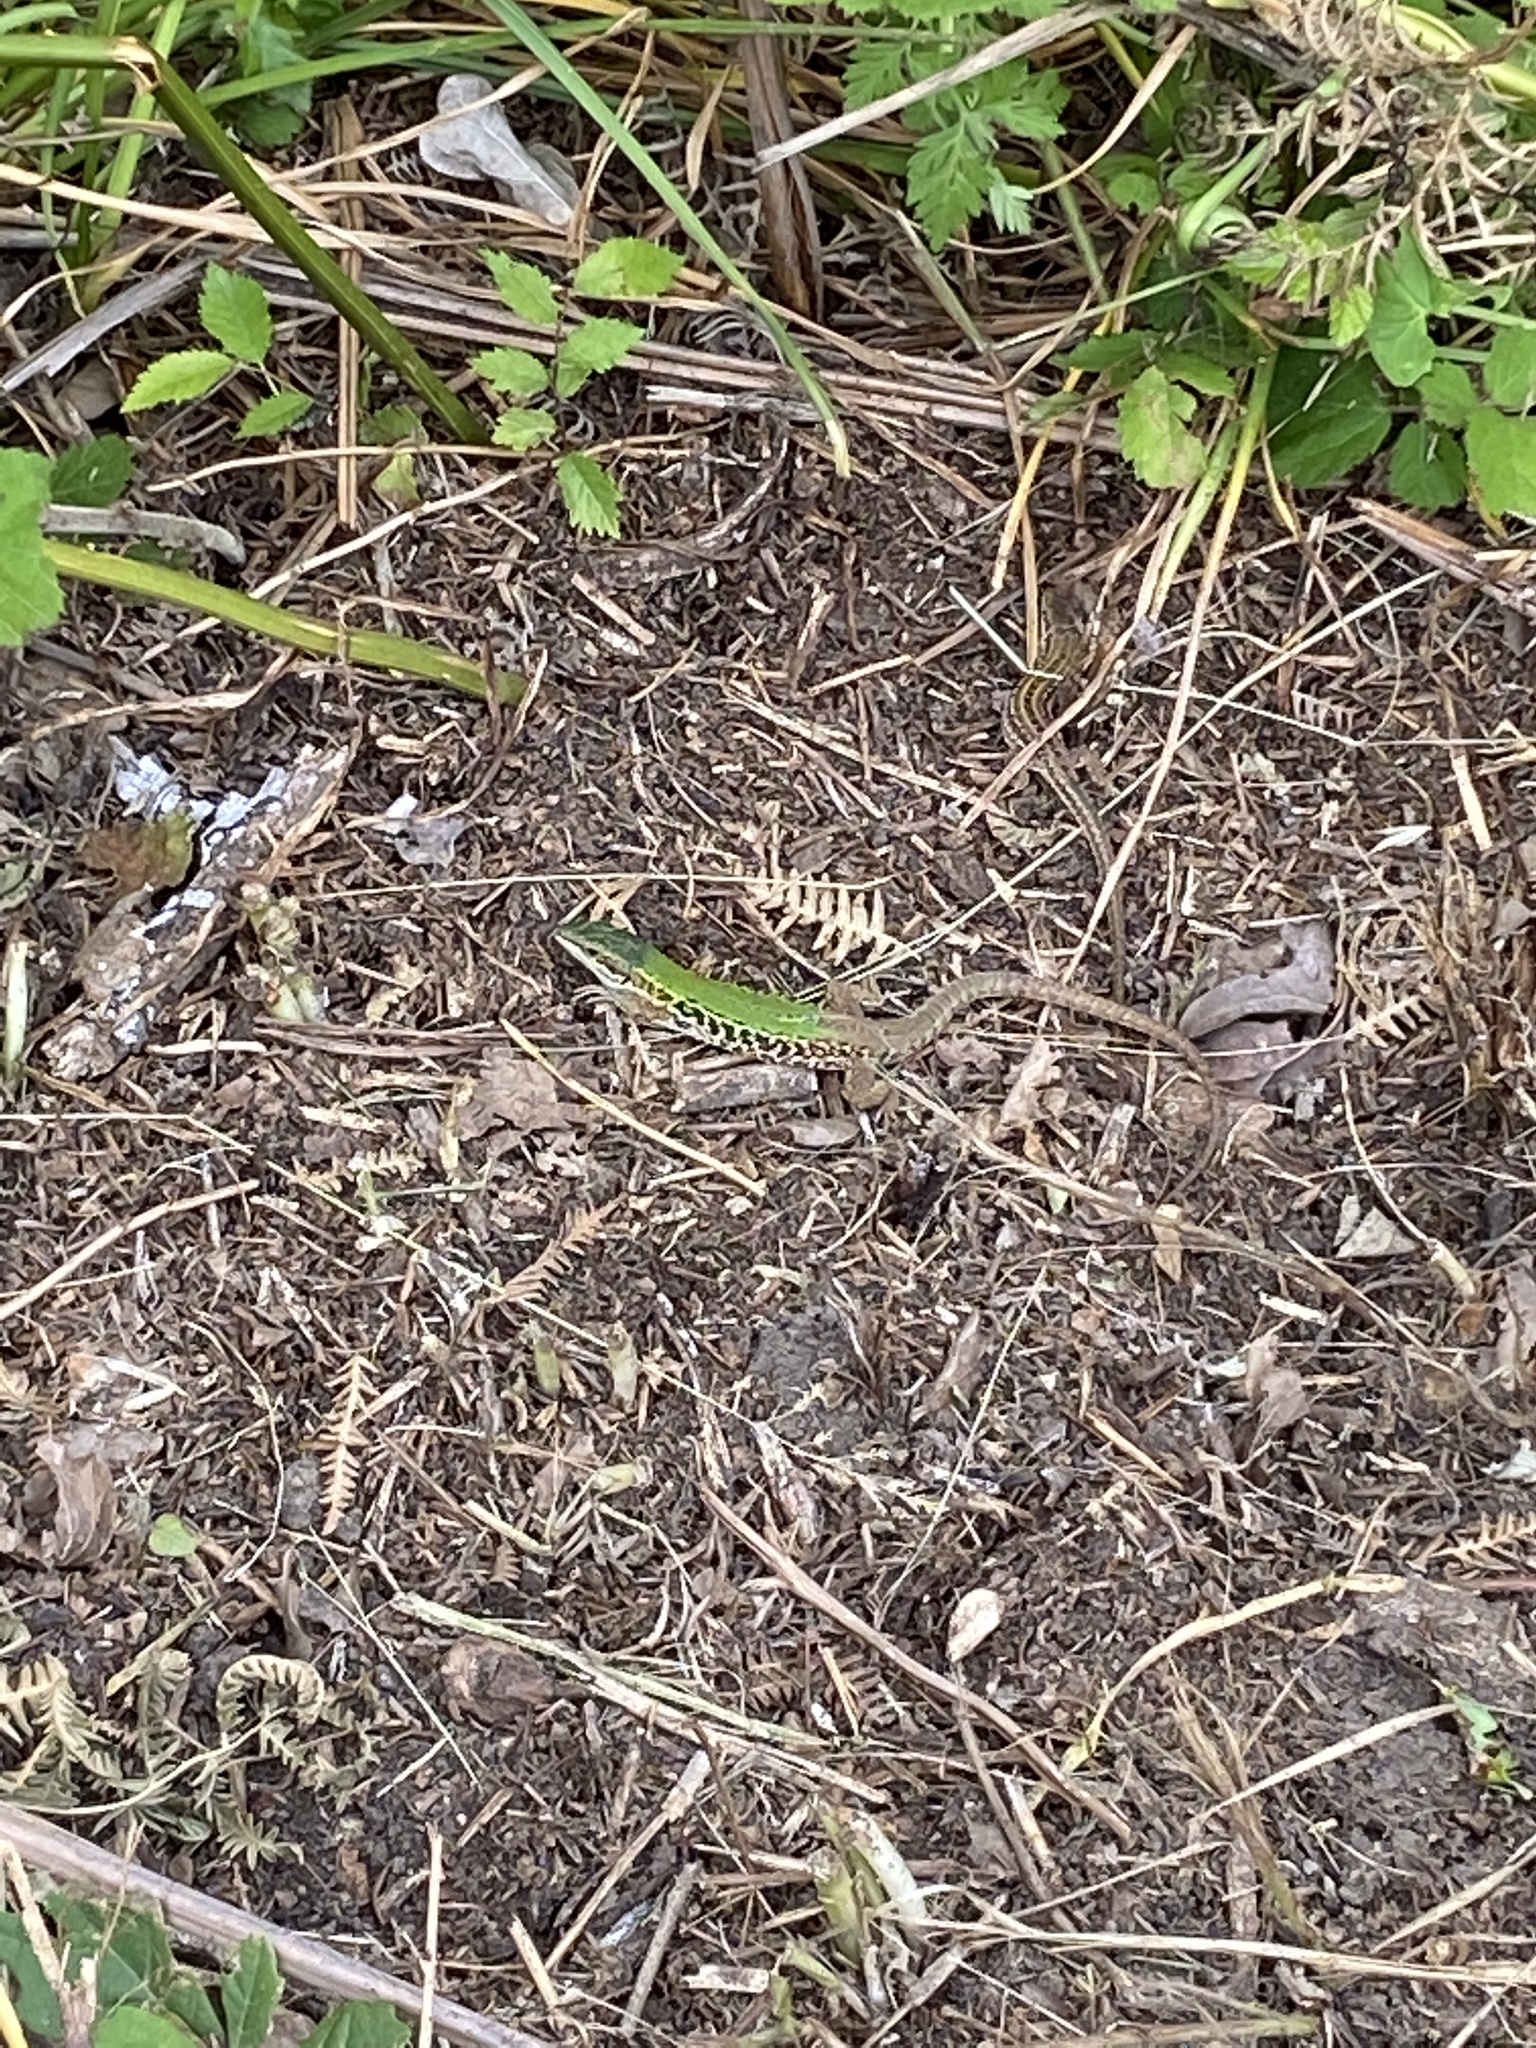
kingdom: Animalia
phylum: Chordata
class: Squamata
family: Lacertidae
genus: Podarcis
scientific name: Podarcis siculus
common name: Italian wall lizard
